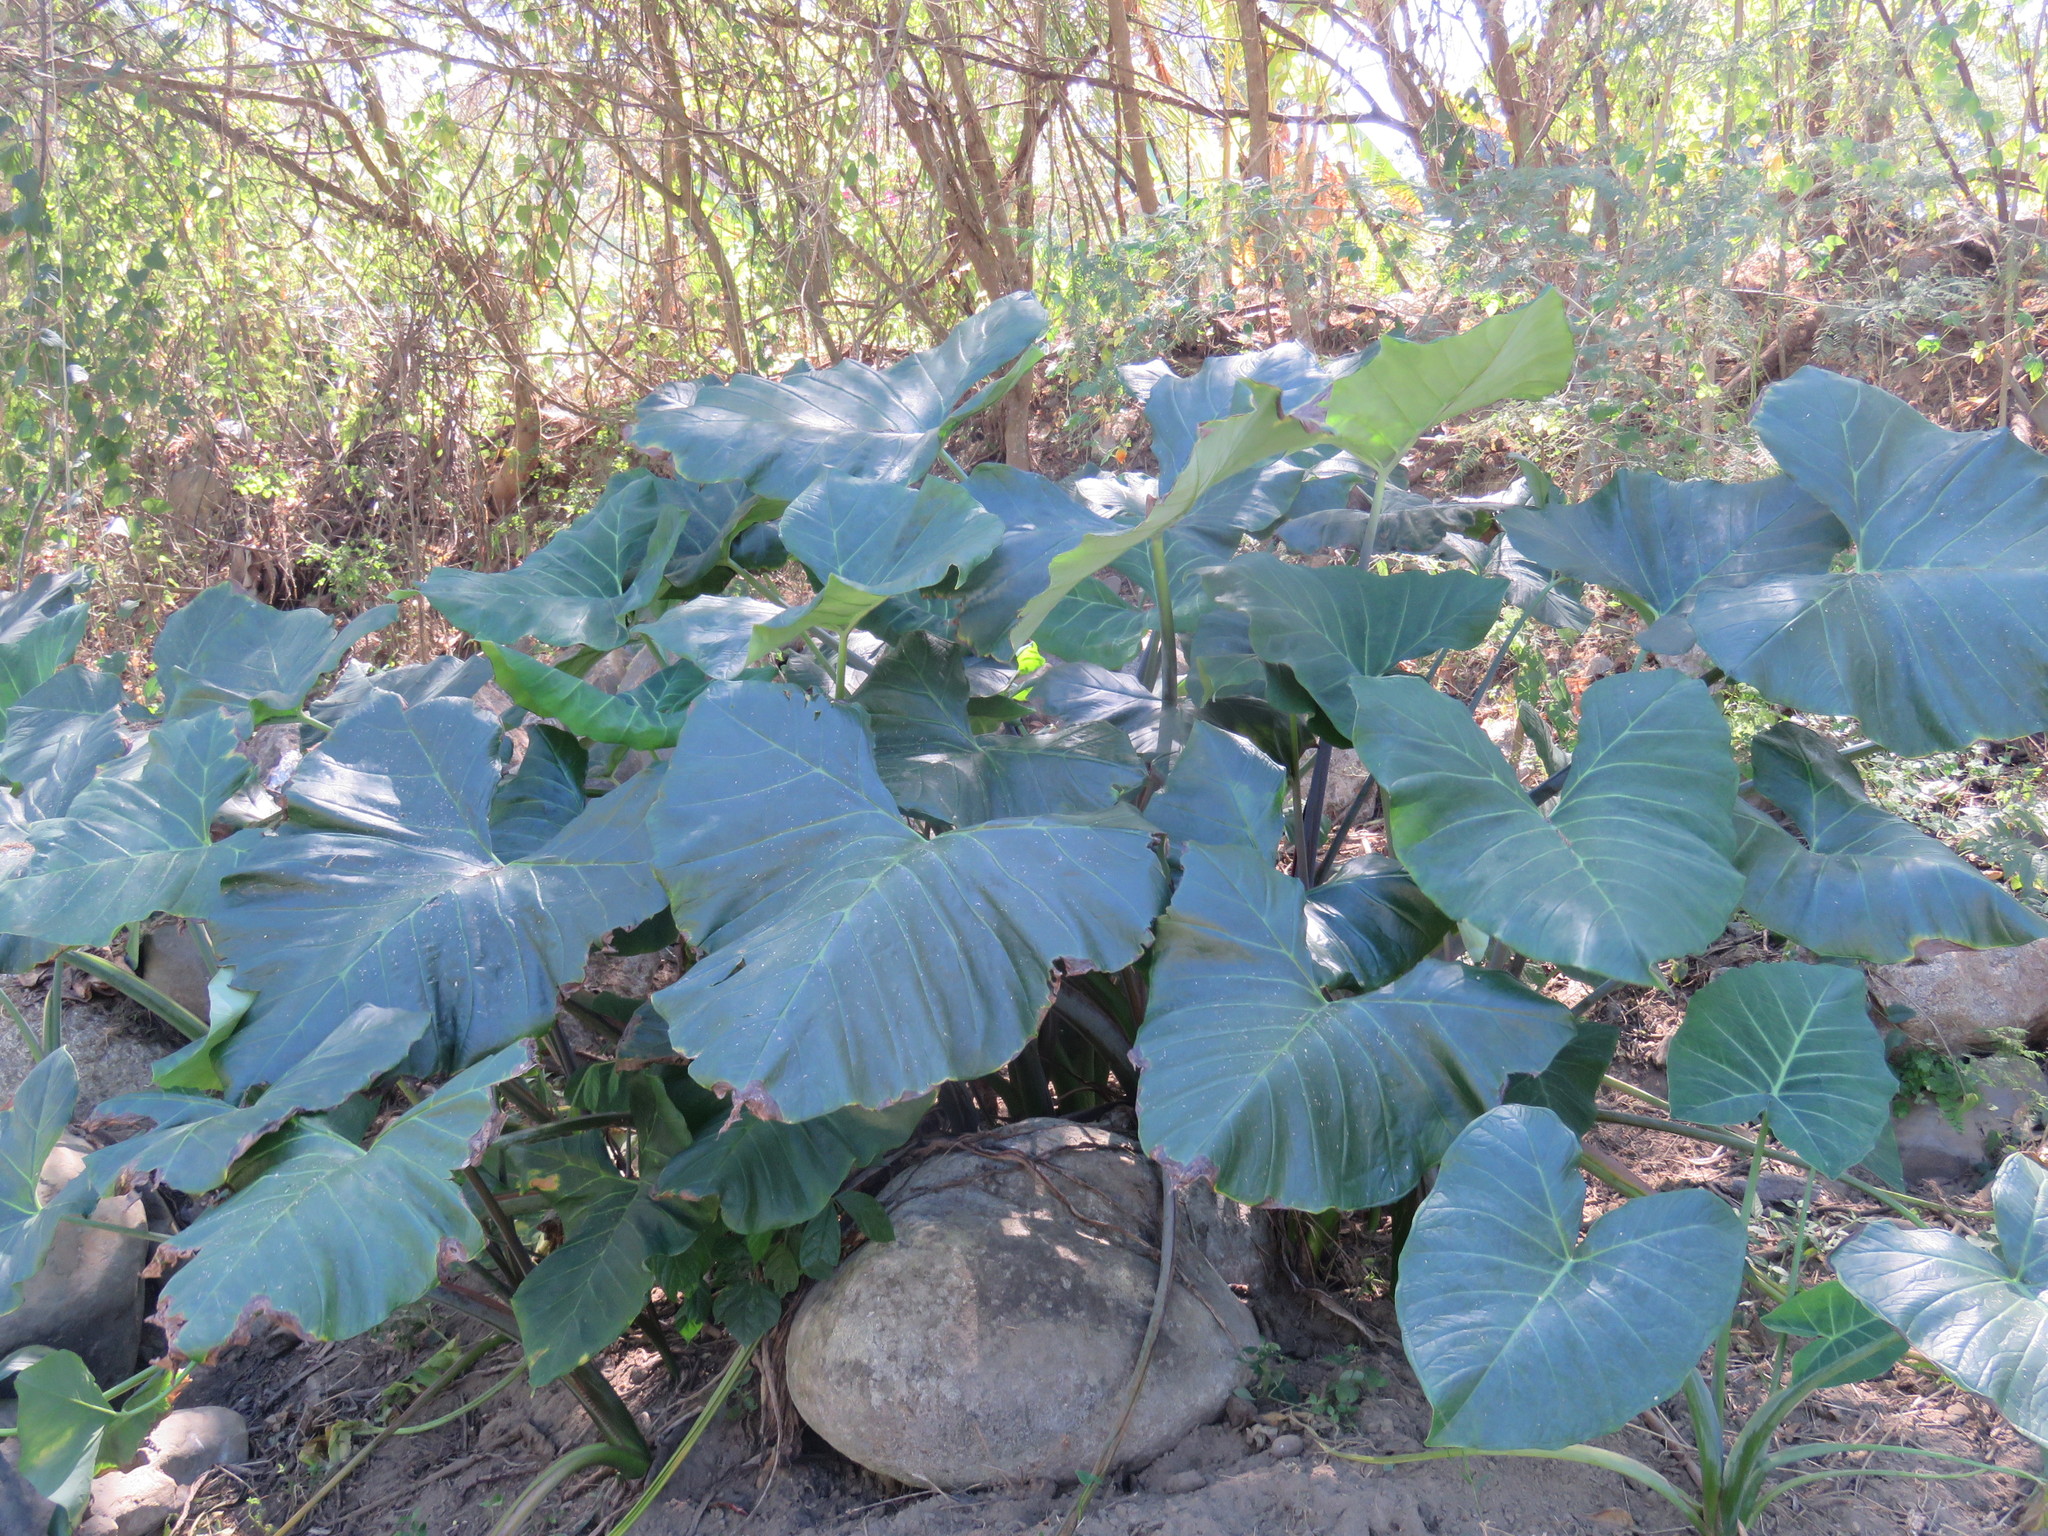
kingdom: Plantae
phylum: Tracheophyta
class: Liliopsida
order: Alismatales
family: Araceae
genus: Xanthosoma
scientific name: Xanthosoma robustum
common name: Capote
